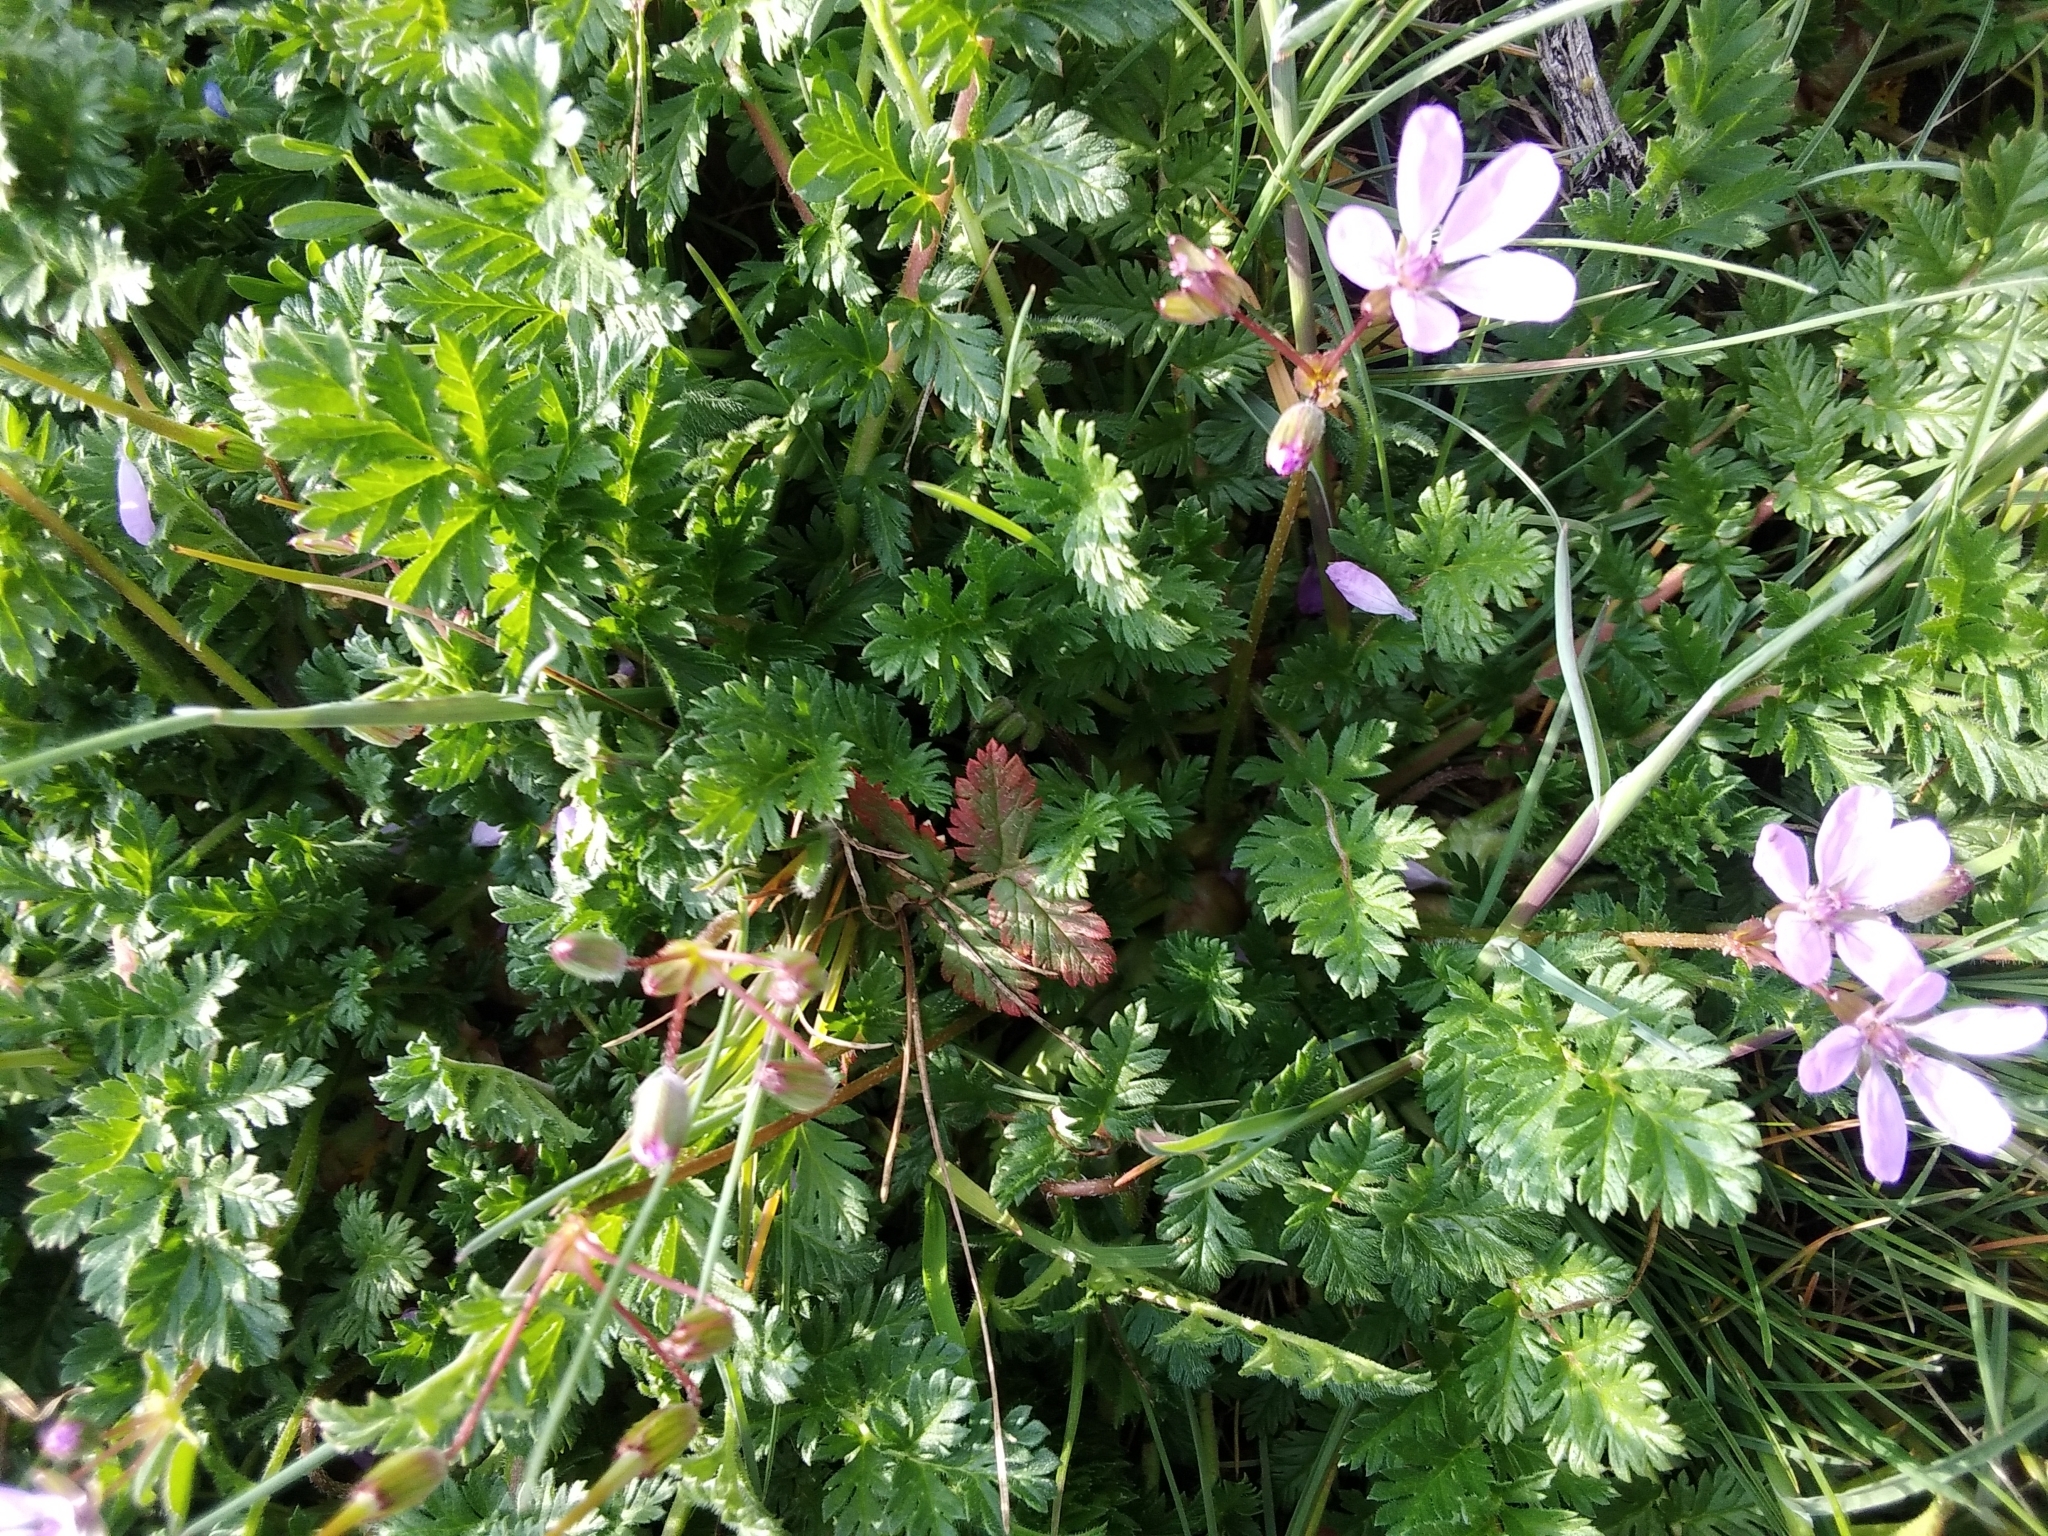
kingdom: Plantae
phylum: Tracheophyta
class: Magnoliopsida
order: Geraniales
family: Geraniaceae
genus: Erodium
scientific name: Erodium cicutarium
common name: Common stork's-bill
